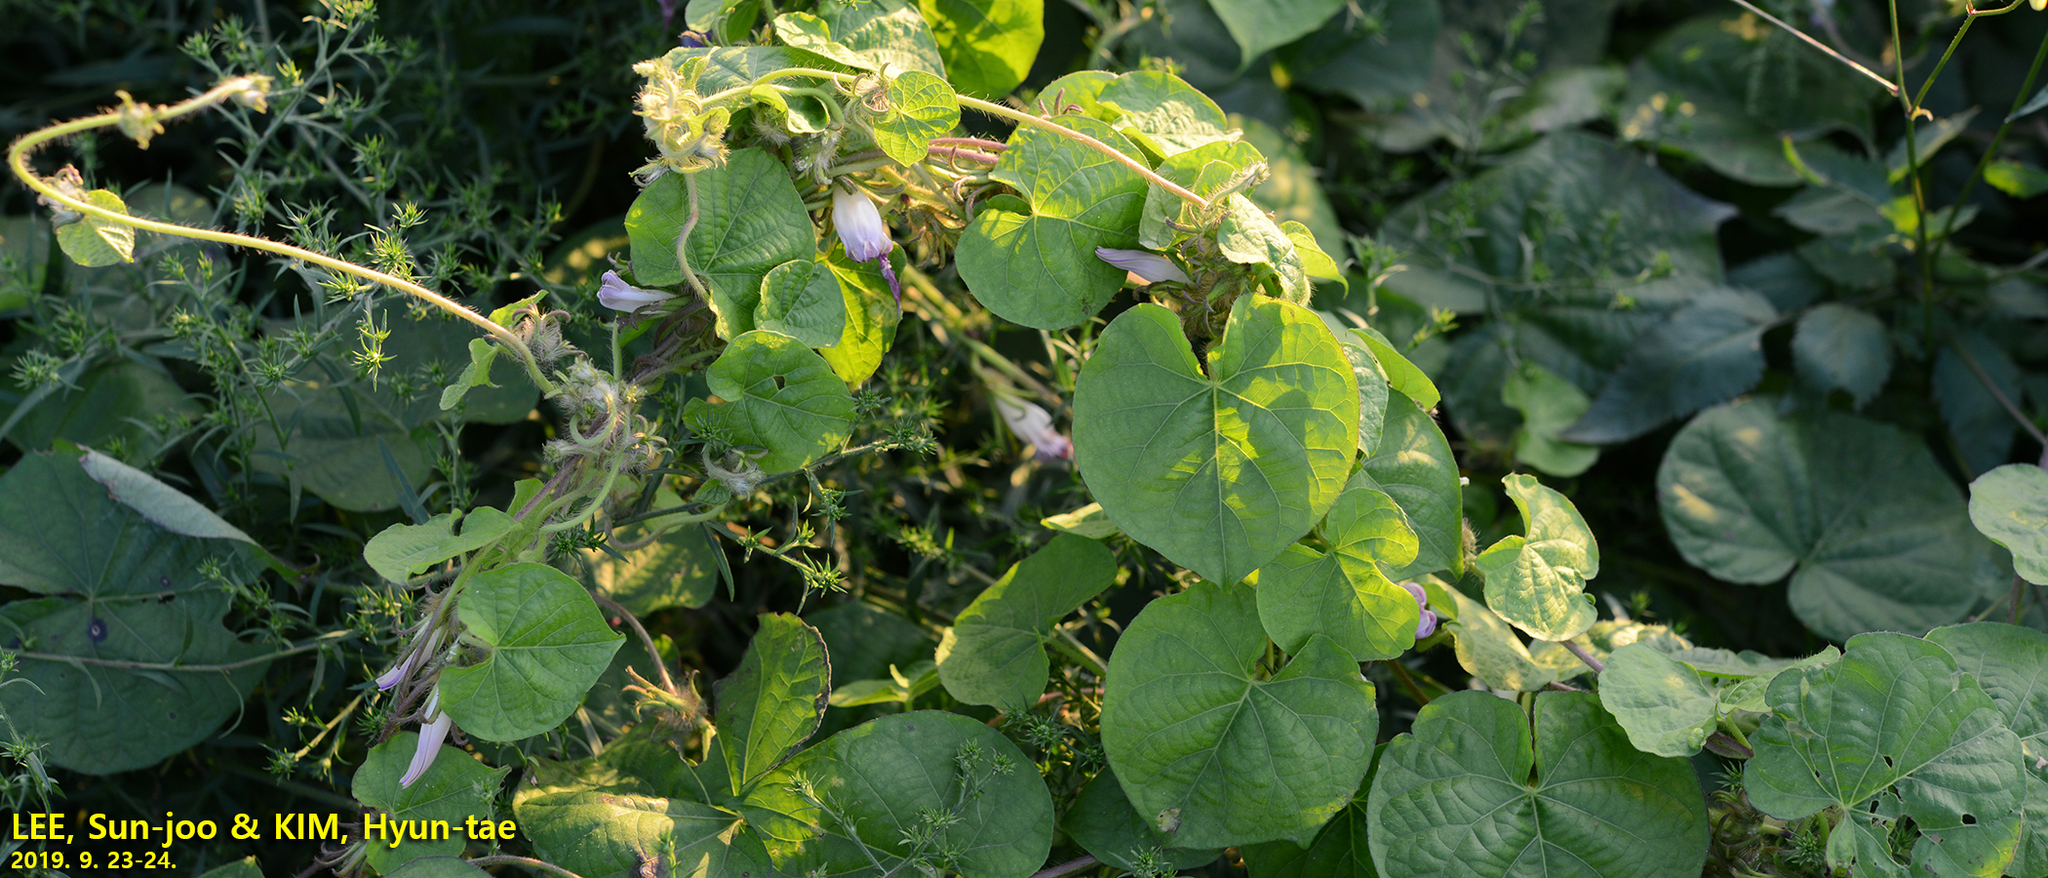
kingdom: Plantae
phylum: Tracheophyta
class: Magnoliopsida
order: Solanales
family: Convolvulaceae
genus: Ipomoea
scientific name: Ipomoea hederacea
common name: Ivy-leaved morning-glory
